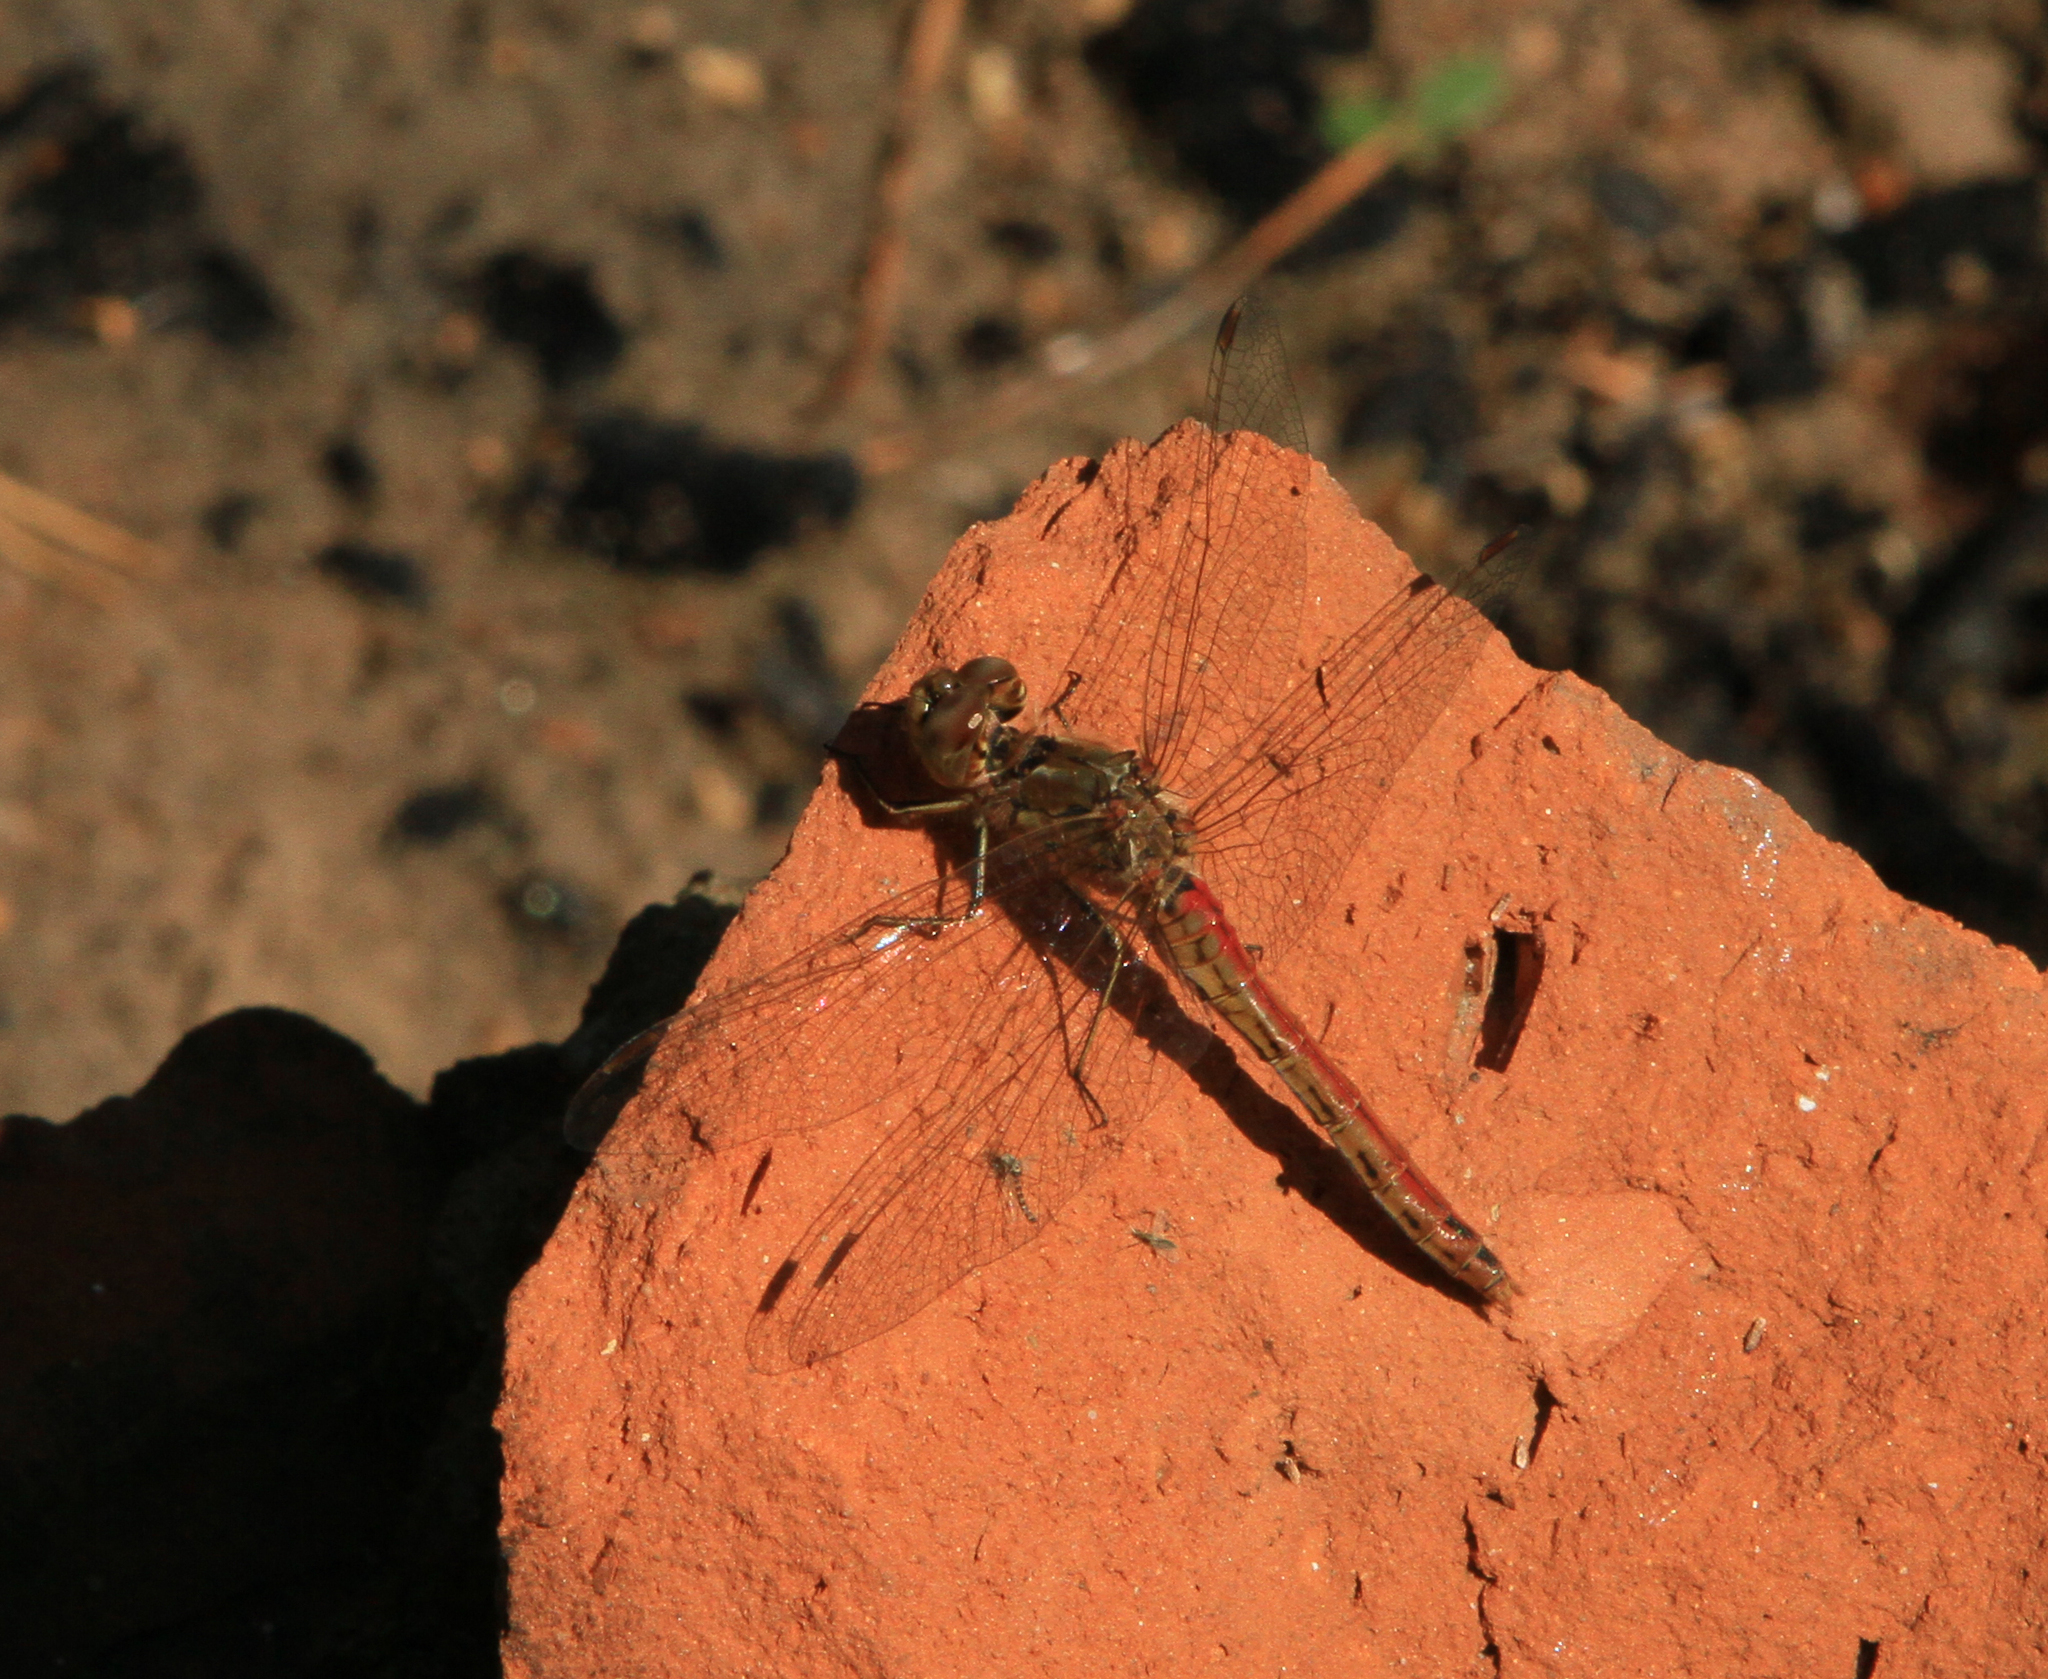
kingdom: Animalia
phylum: Arthropoda
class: Insecta
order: Odonata
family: Libellulidae
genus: Sympetrum
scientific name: Sympetrum vulgatum
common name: Vagrant darter
